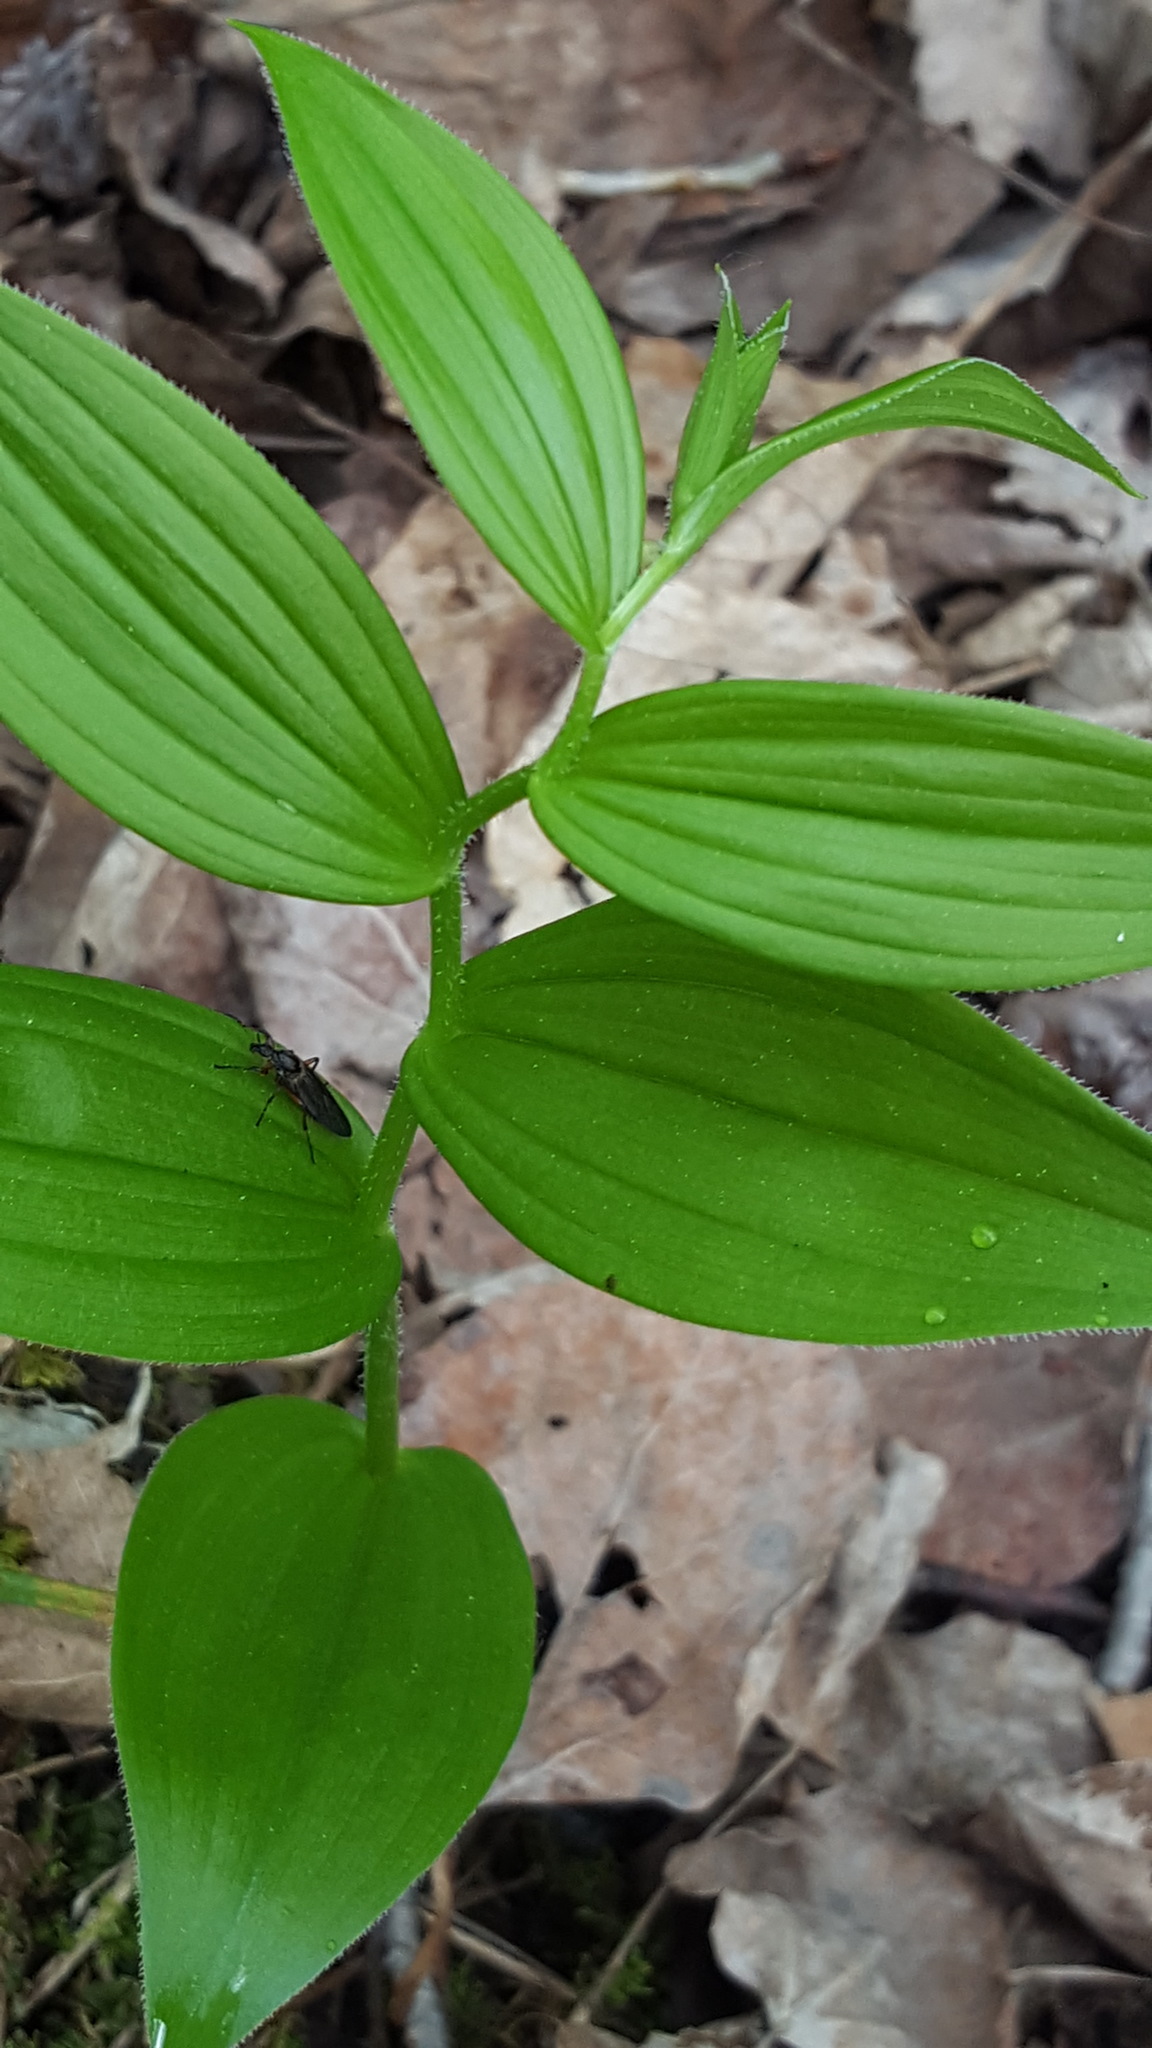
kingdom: Plantae
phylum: Tracheophyta
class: Liliopsida
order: Liliales
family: Liliaceae
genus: Streptopus
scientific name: Streptopus lanceolatus
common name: Rose mandarin
